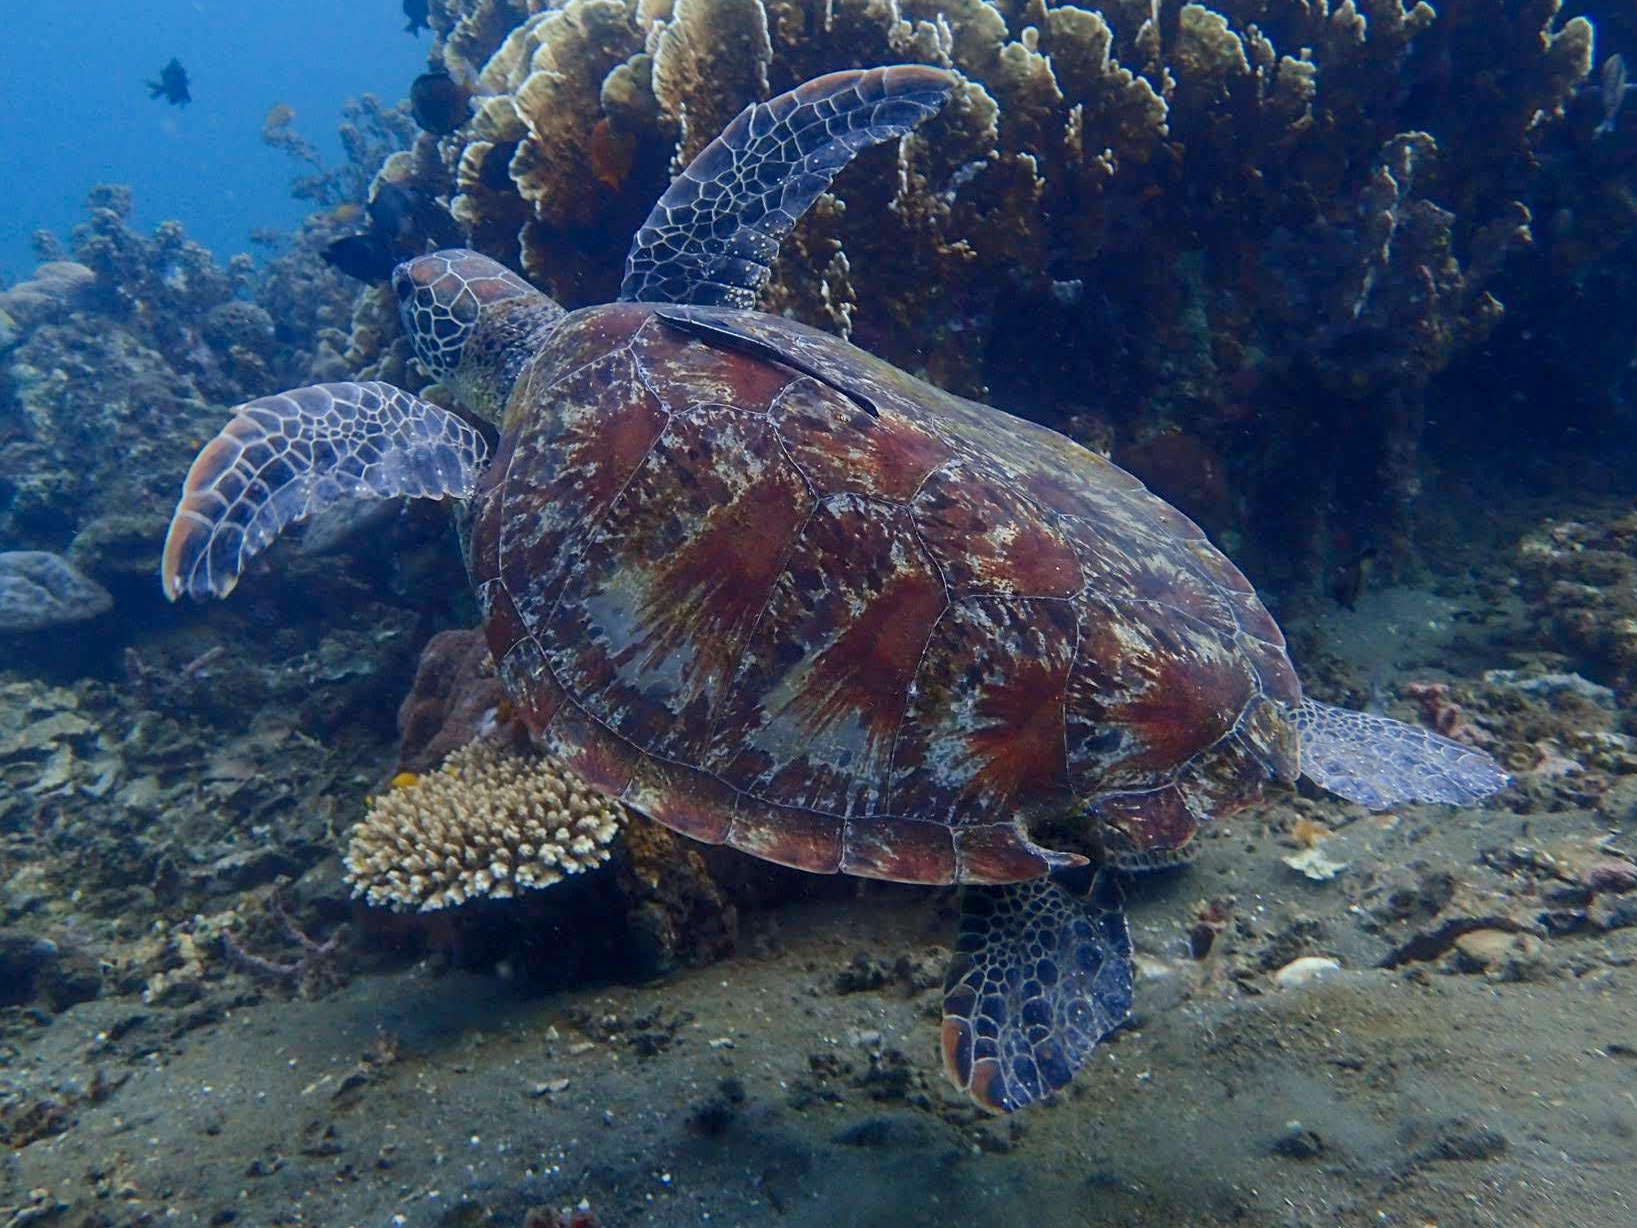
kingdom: Animalia
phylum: Chordata
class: Testudines
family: Cheloniidae
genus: Chelonia
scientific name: Chelonia mydas
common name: Green turtle
